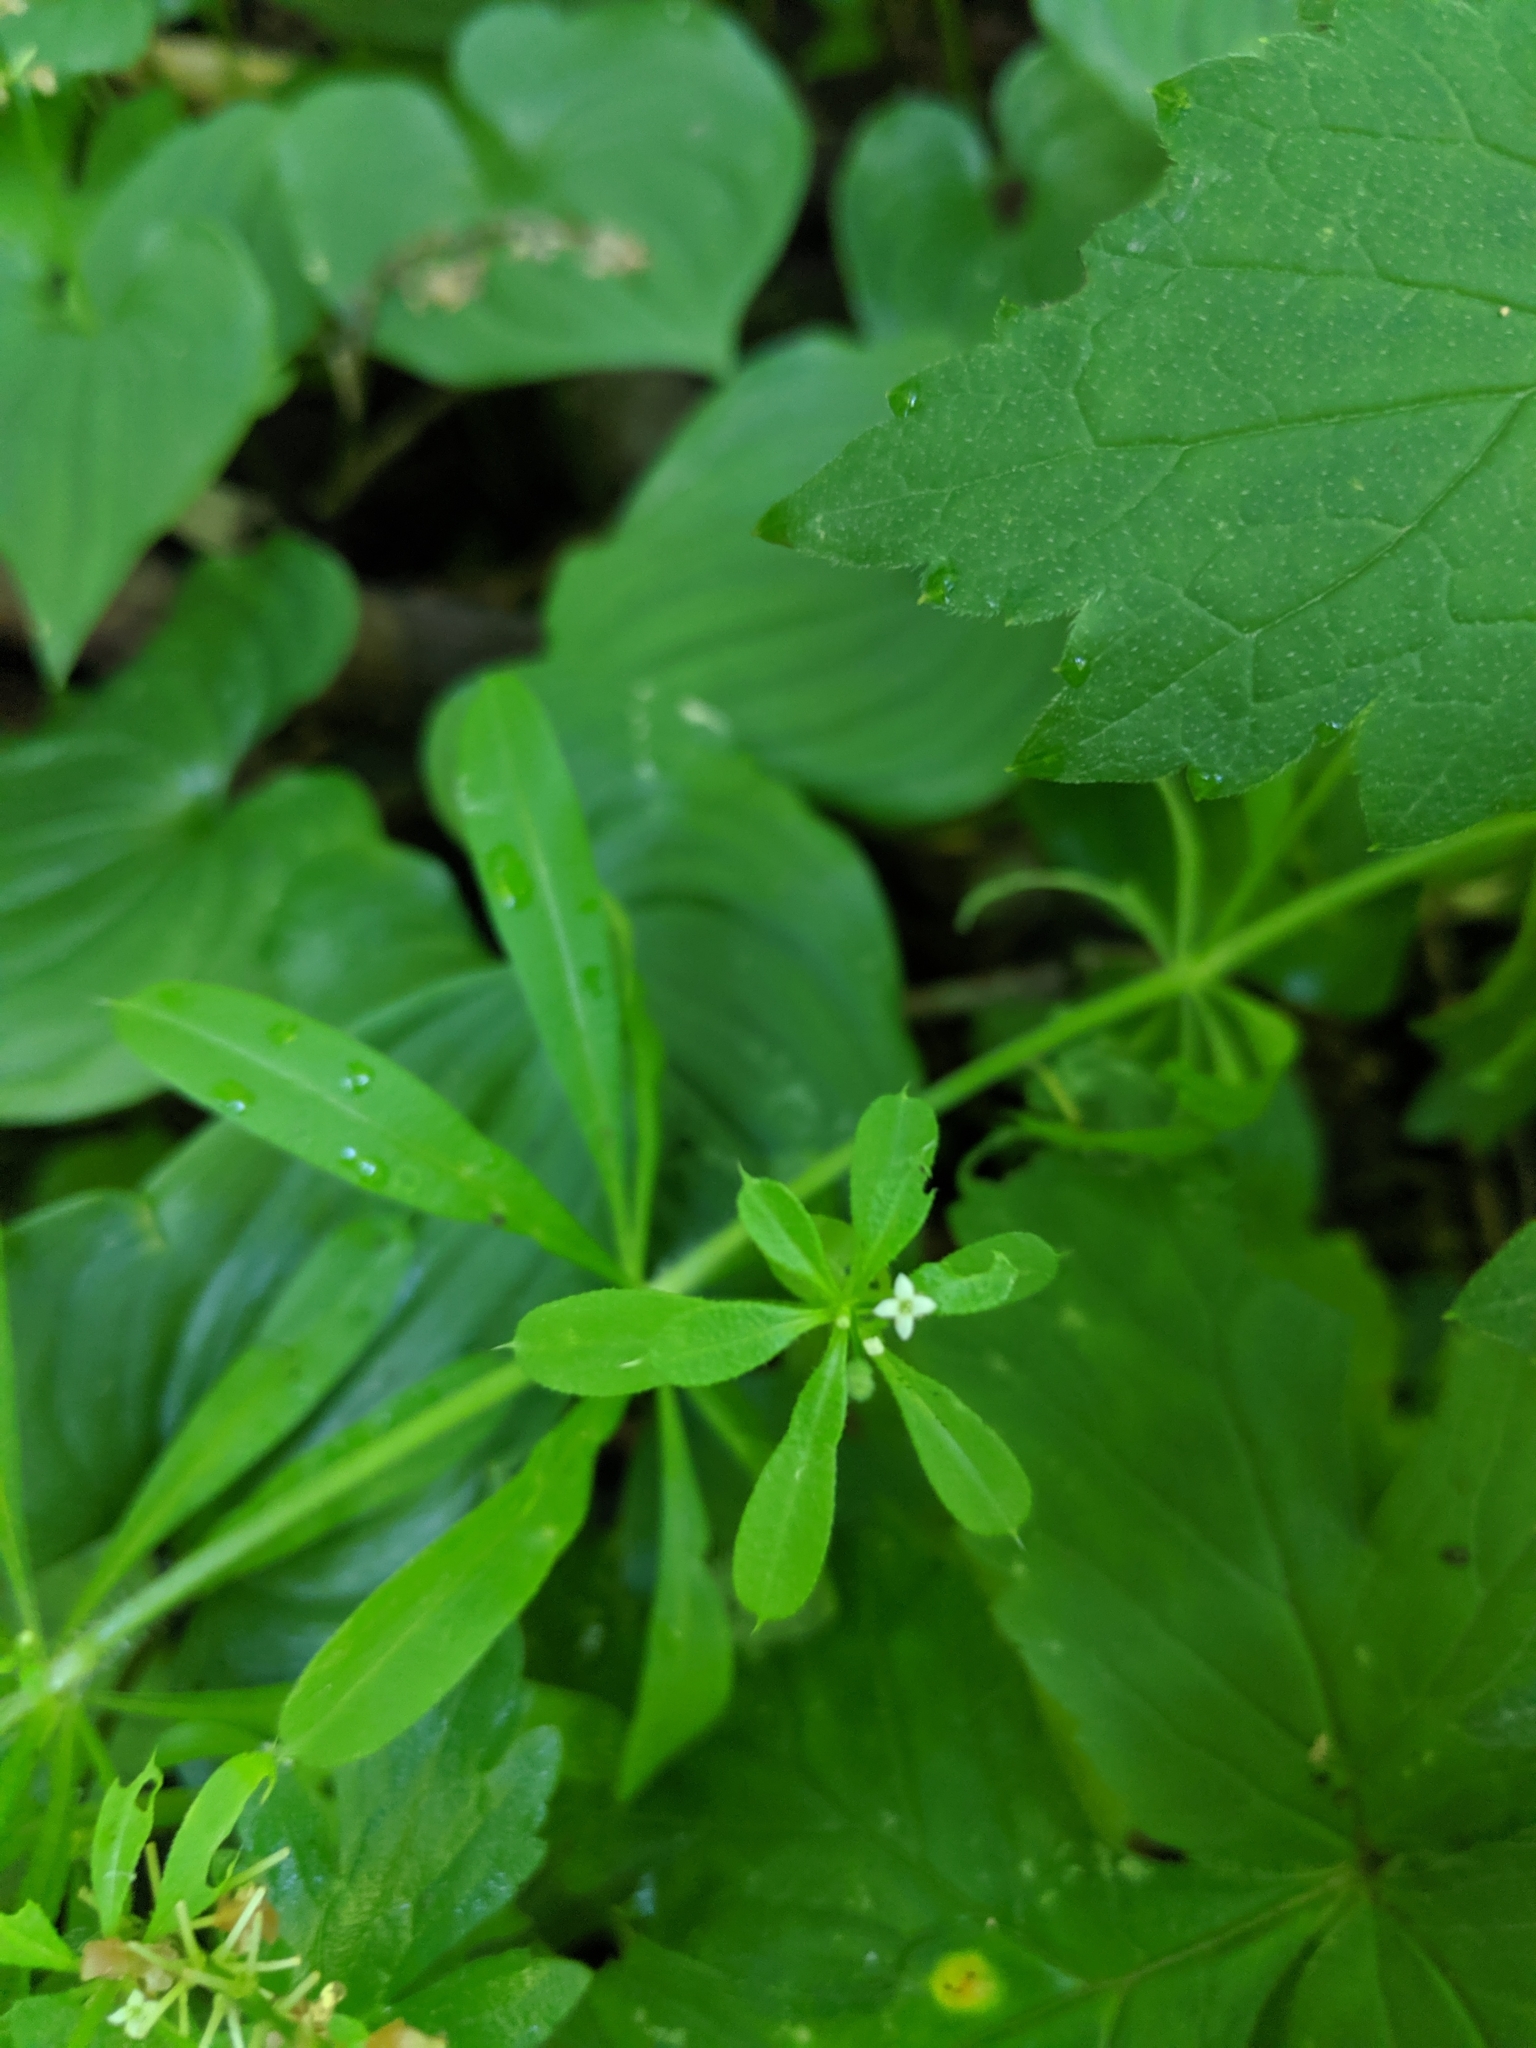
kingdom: Plantae
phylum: Tracheophyta
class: Magnoliopsida
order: Gentianales
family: Rubiaceae
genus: Galium
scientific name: Galium aparine
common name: Cleavers
